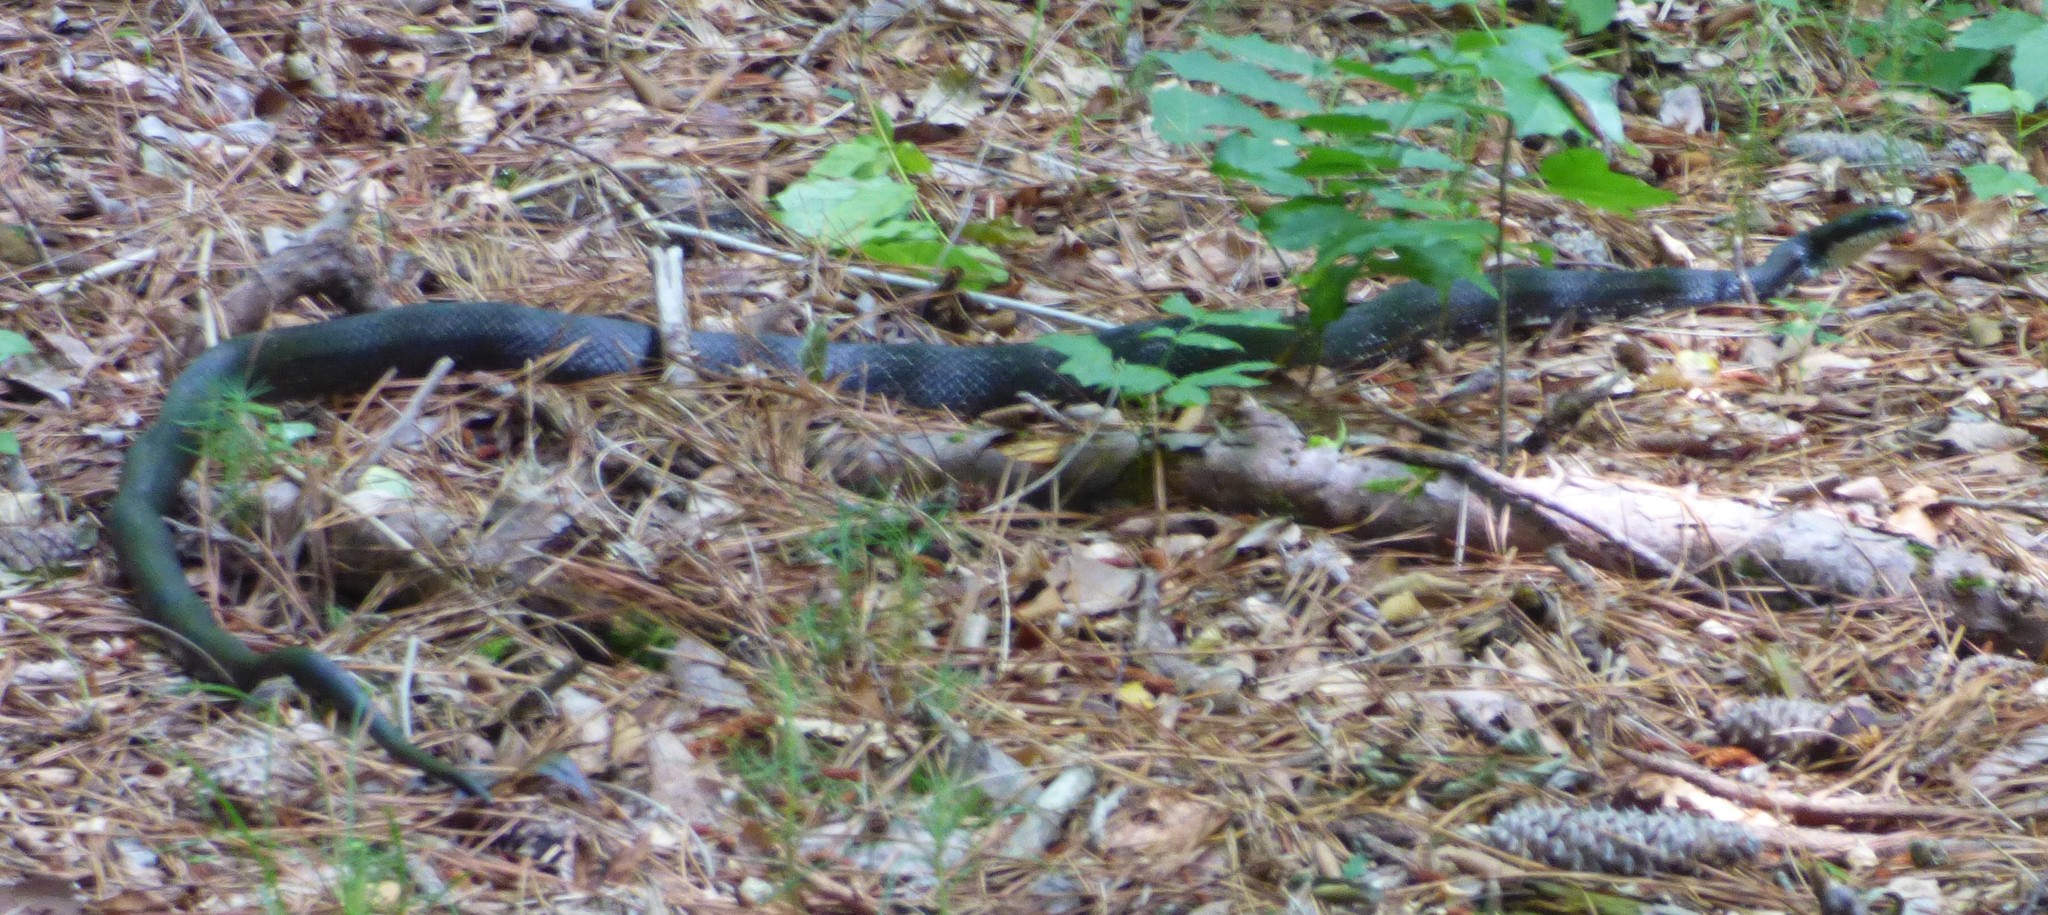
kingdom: Animalia
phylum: Chordata
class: Squamata
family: Colubridae
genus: Pantherophis
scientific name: Pantherophis alleghaniensis
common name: Eastern rat snake
